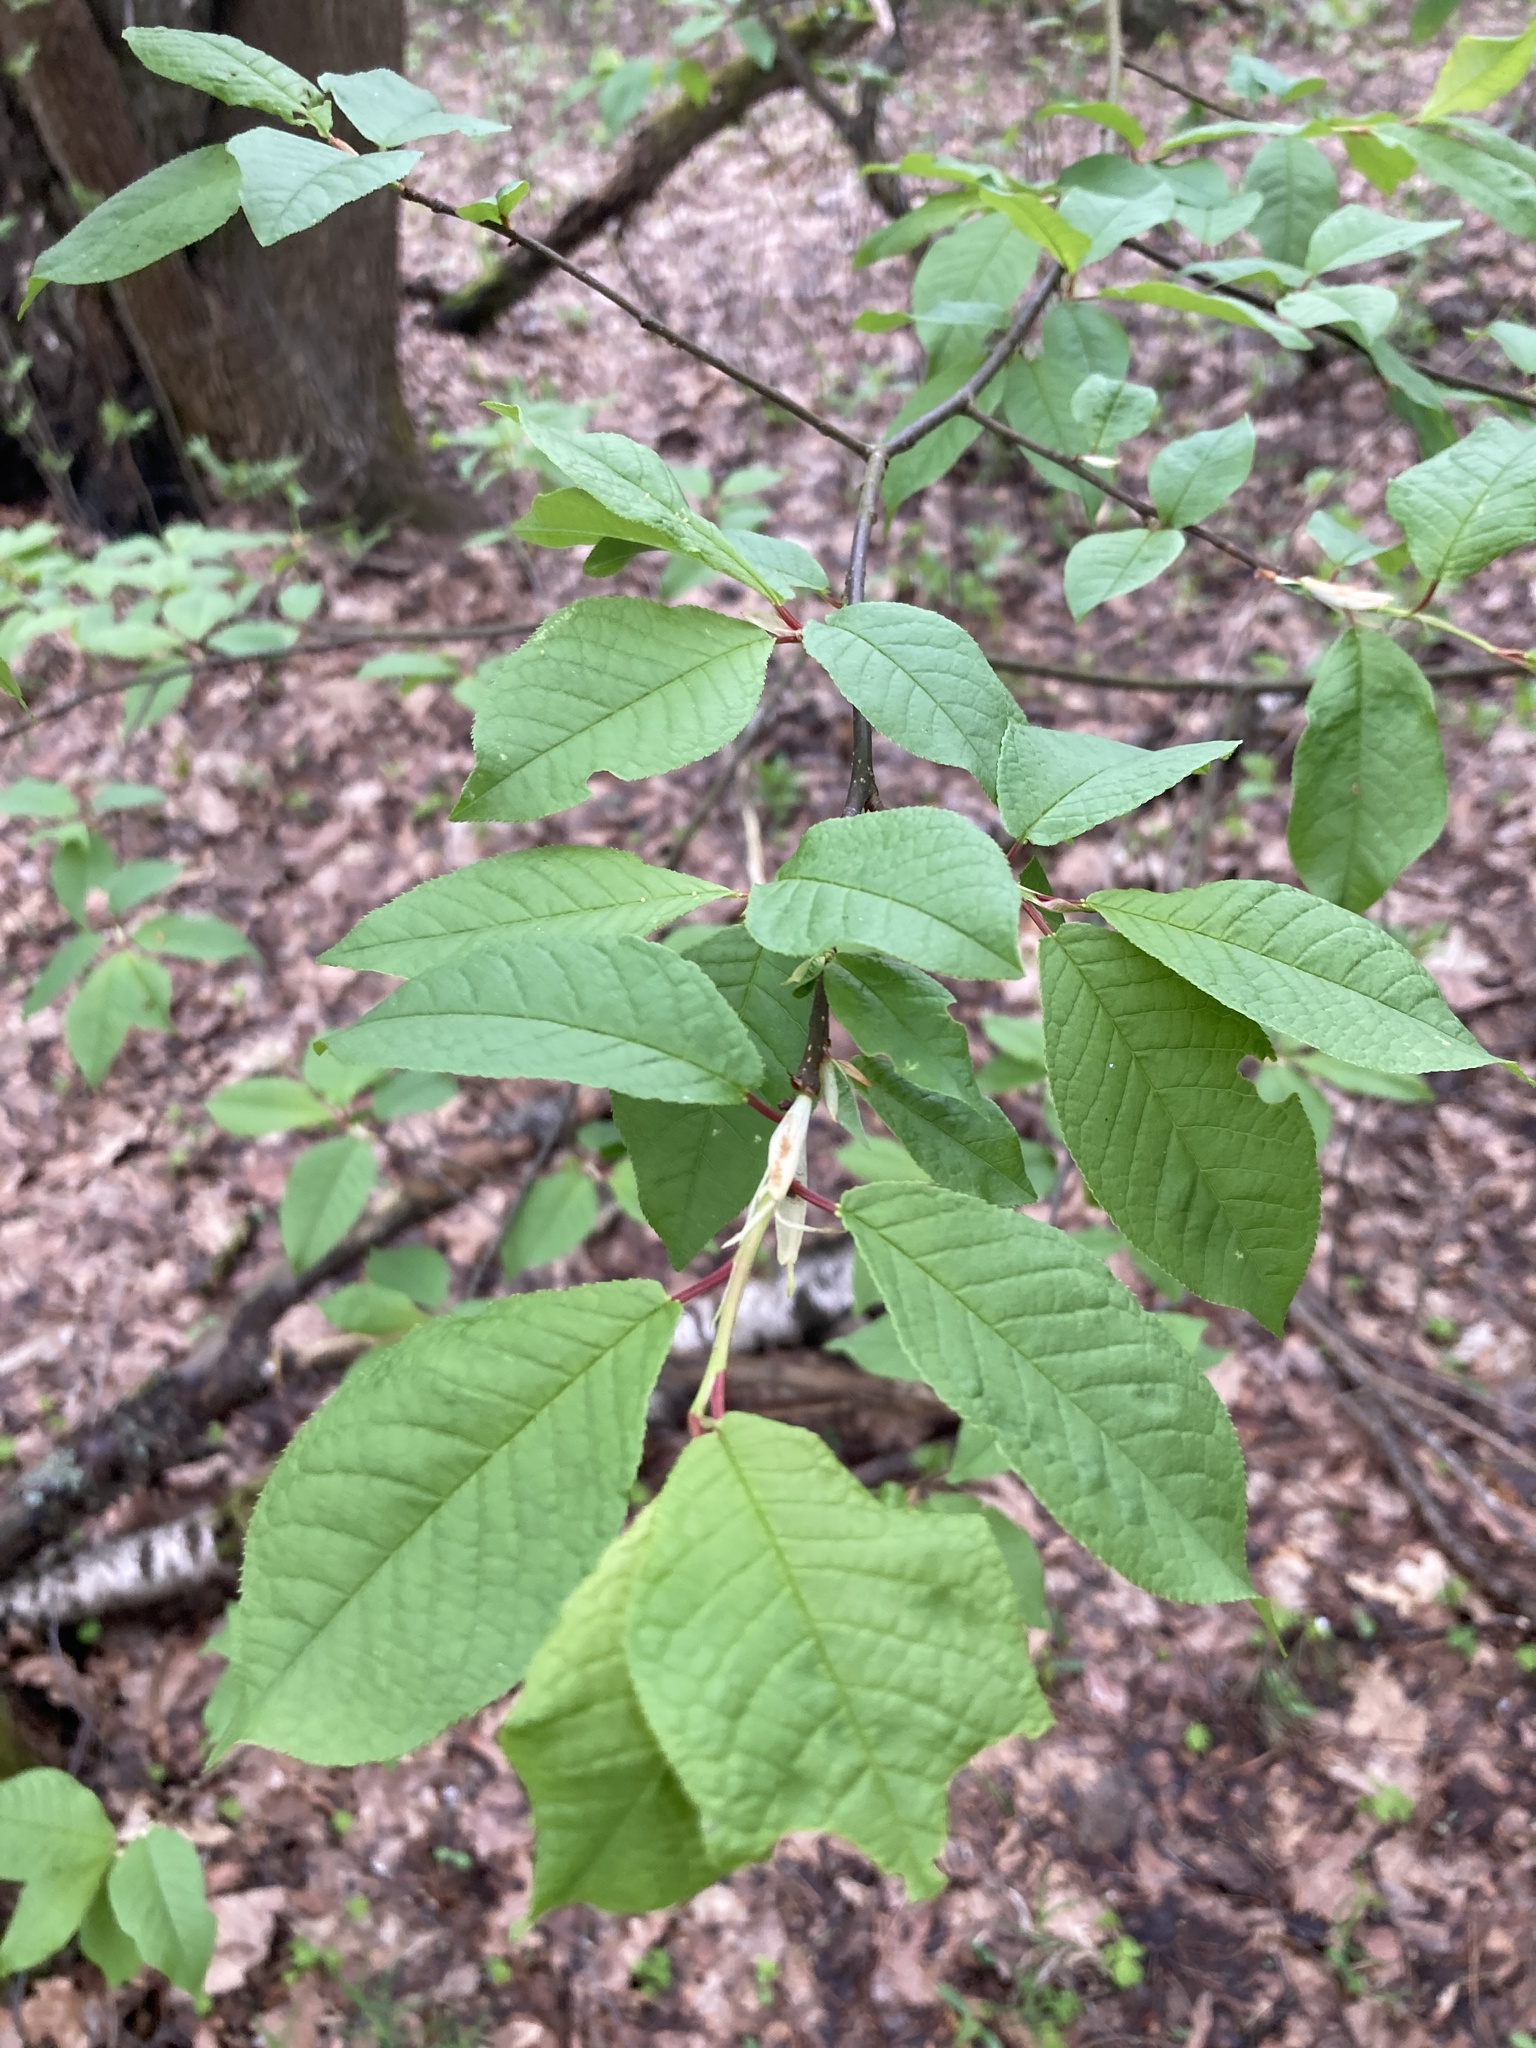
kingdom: Plantae
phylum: Tracheophyta
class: Magnoliopsida
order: Rosales
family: Rosaceae
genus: Prunus
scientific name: Prunus padus
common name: Bird cherry
